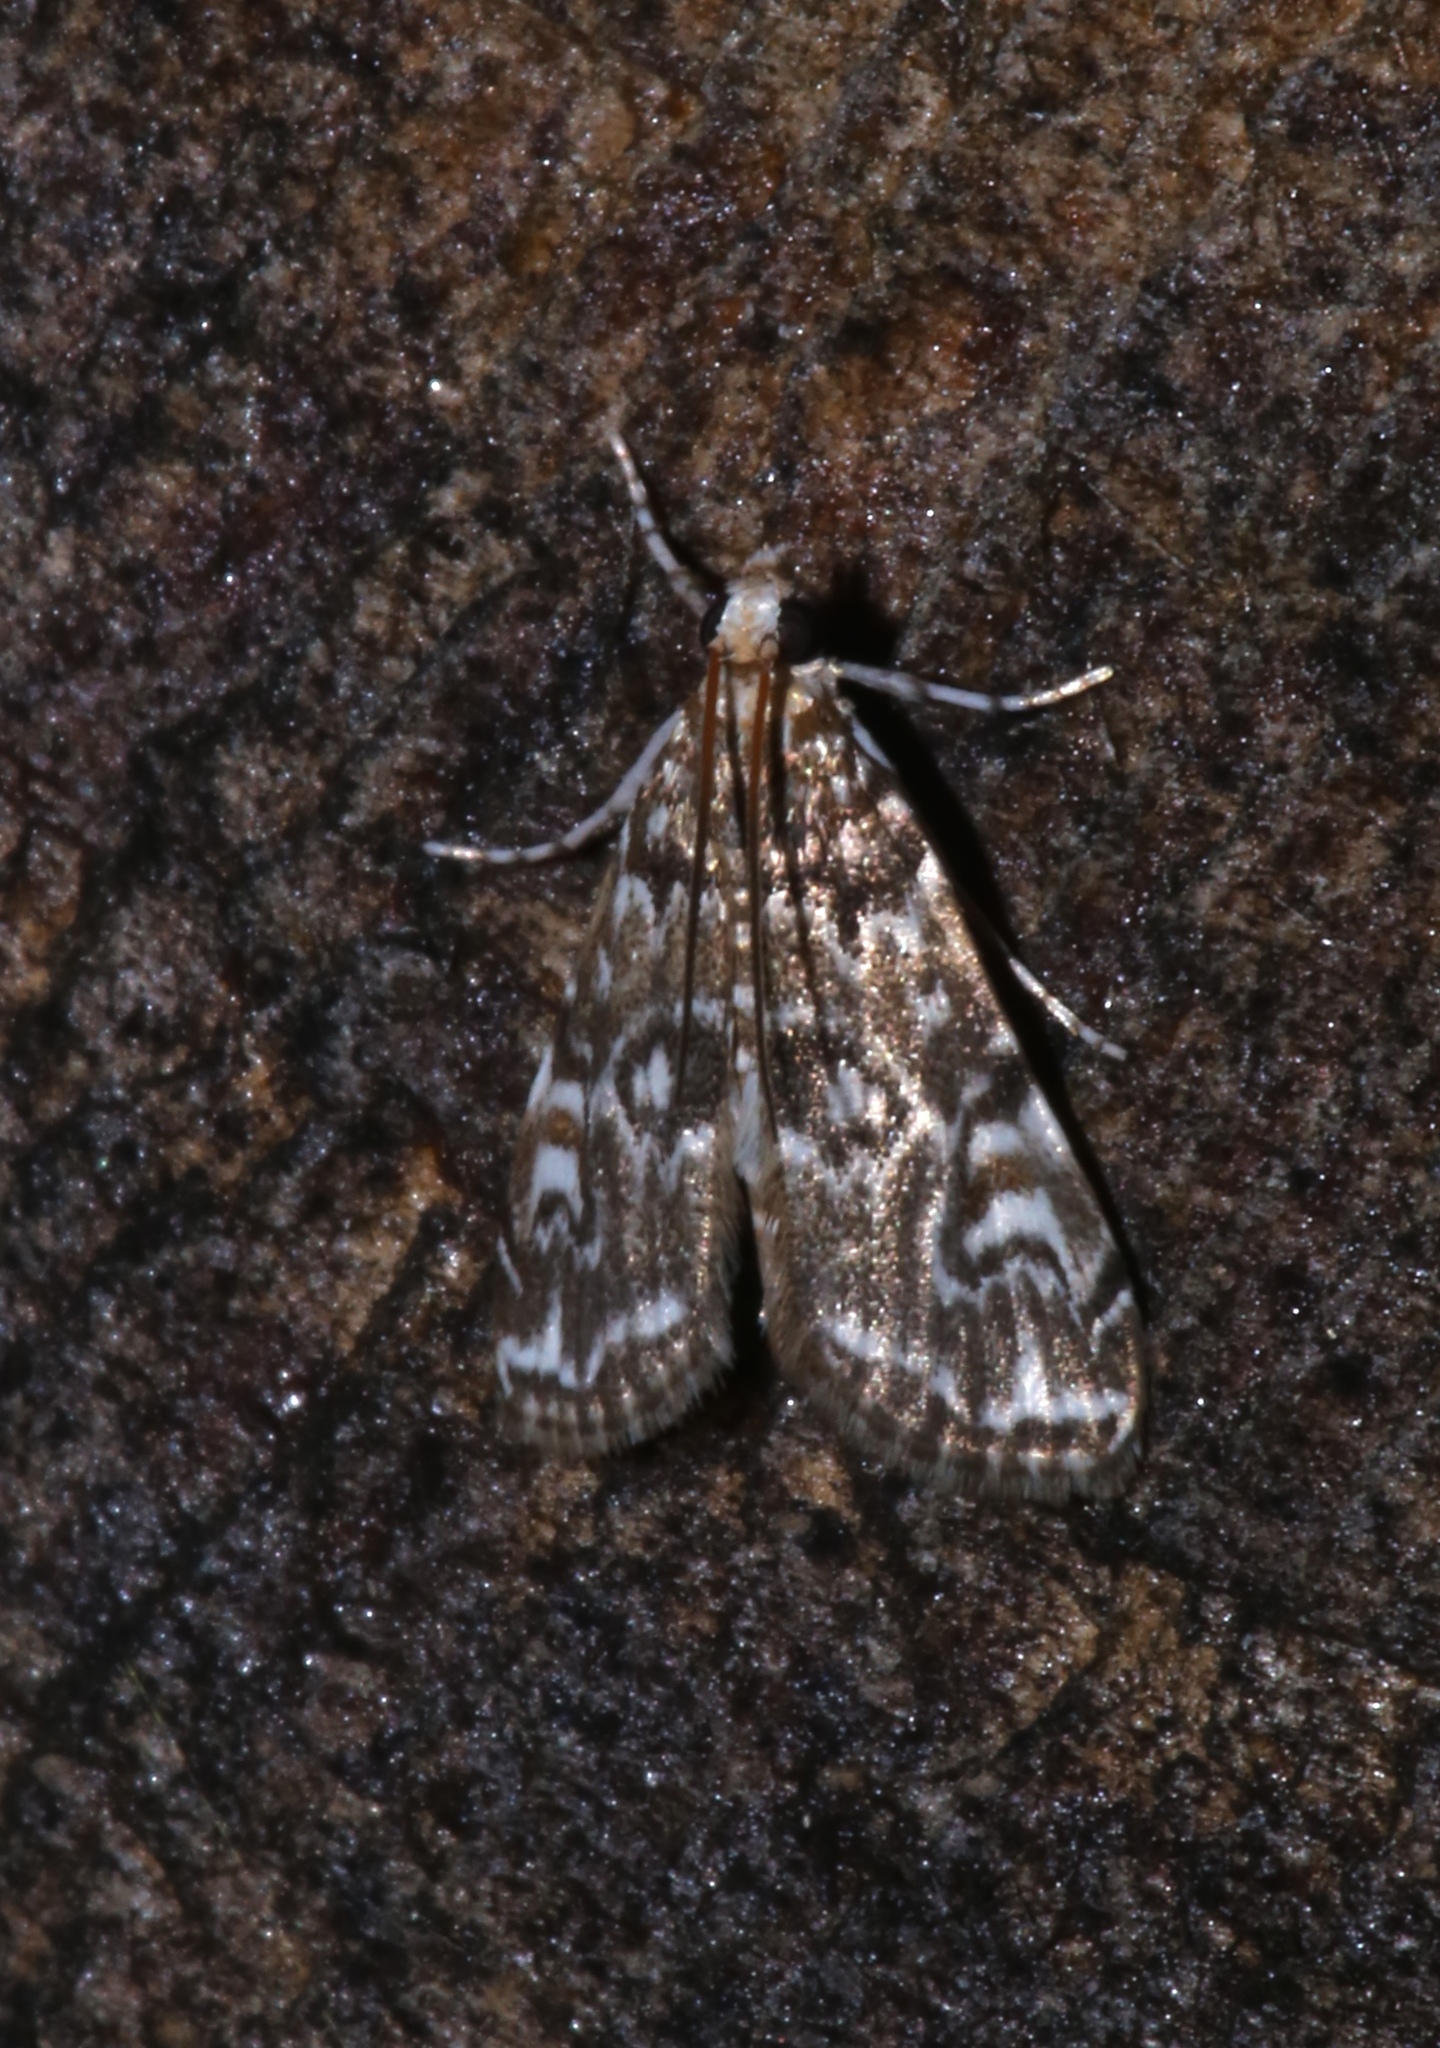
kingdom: Animalia
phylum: Arthropoda
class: Insecta
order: Lepidoptera
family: Crambidae
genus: Elophila
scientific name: Elophila gyralis
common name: Waterlily borer moth
